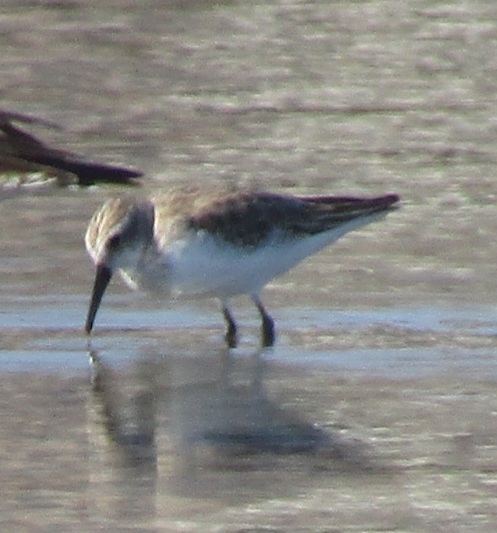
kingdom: Animalia
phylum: Chordata
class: Aves
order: Charadriiformes
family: Scolopacidae
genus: Calidris
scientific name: Calidris mauri
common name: Western sandpiper
